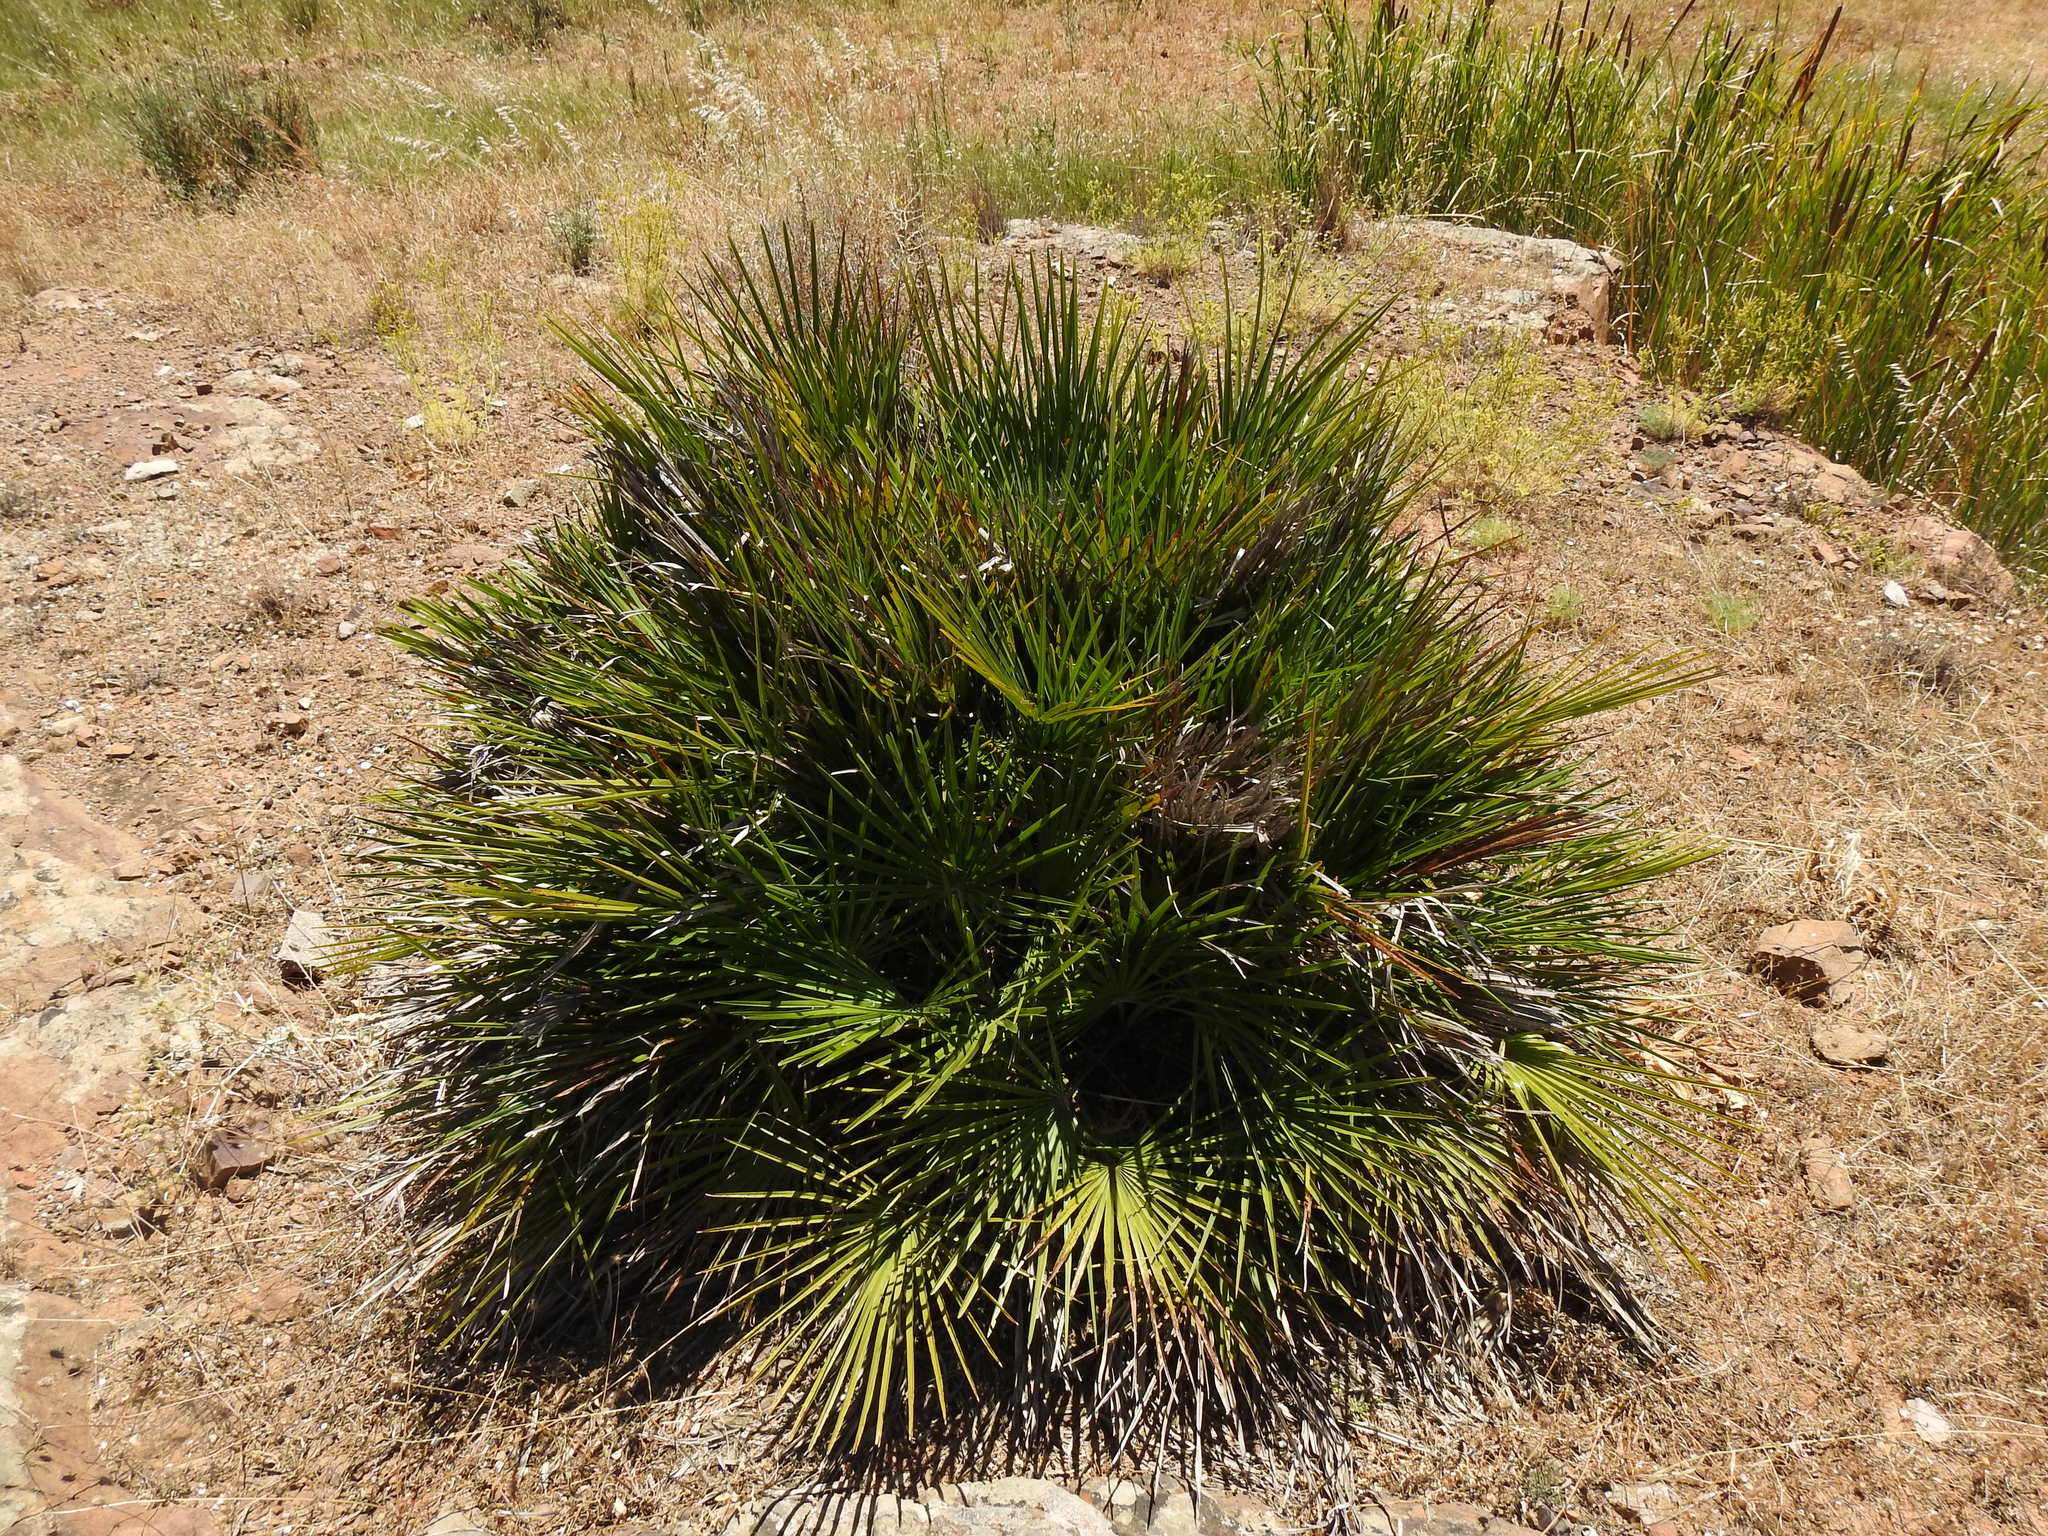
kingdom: Plantae
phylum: Tracheophyta
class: Liliopsida
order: Arecales
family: Arecaceae
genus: Chamaerops
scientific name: Chamaerops humilis
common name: Dwarf fan palm
